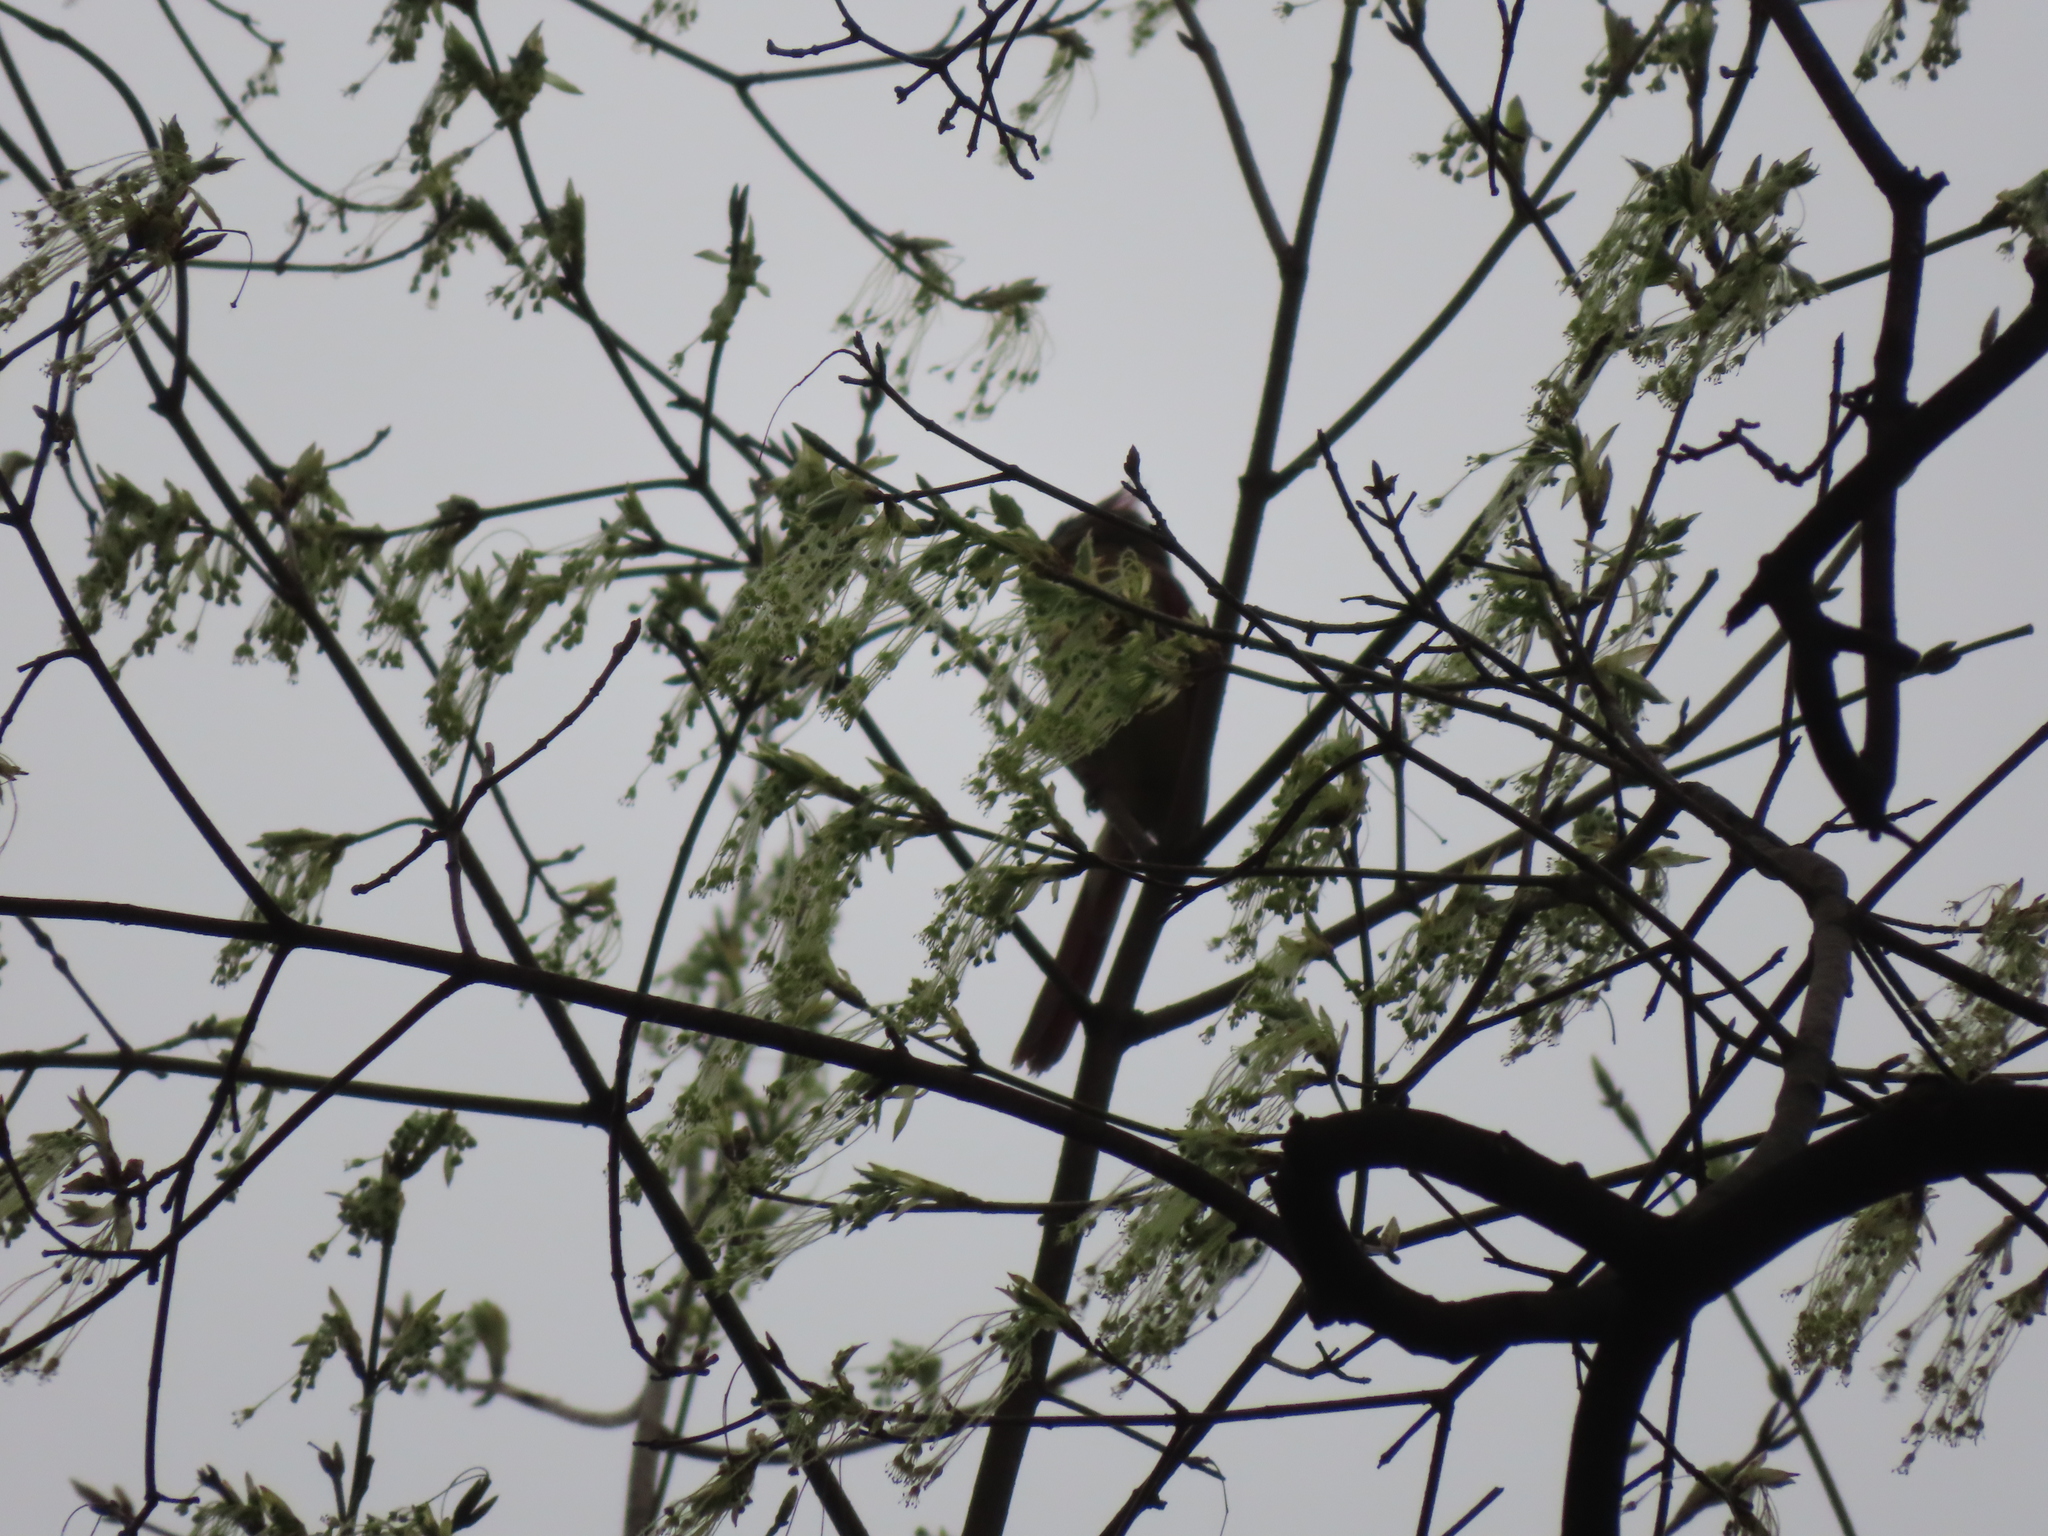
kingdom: Animalia
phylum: Chordata
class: Aves
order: Passeriformes
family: Cardinalidae
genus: Cardinalis
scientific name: Cardinalis cardinalis
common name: Northern cardinal
